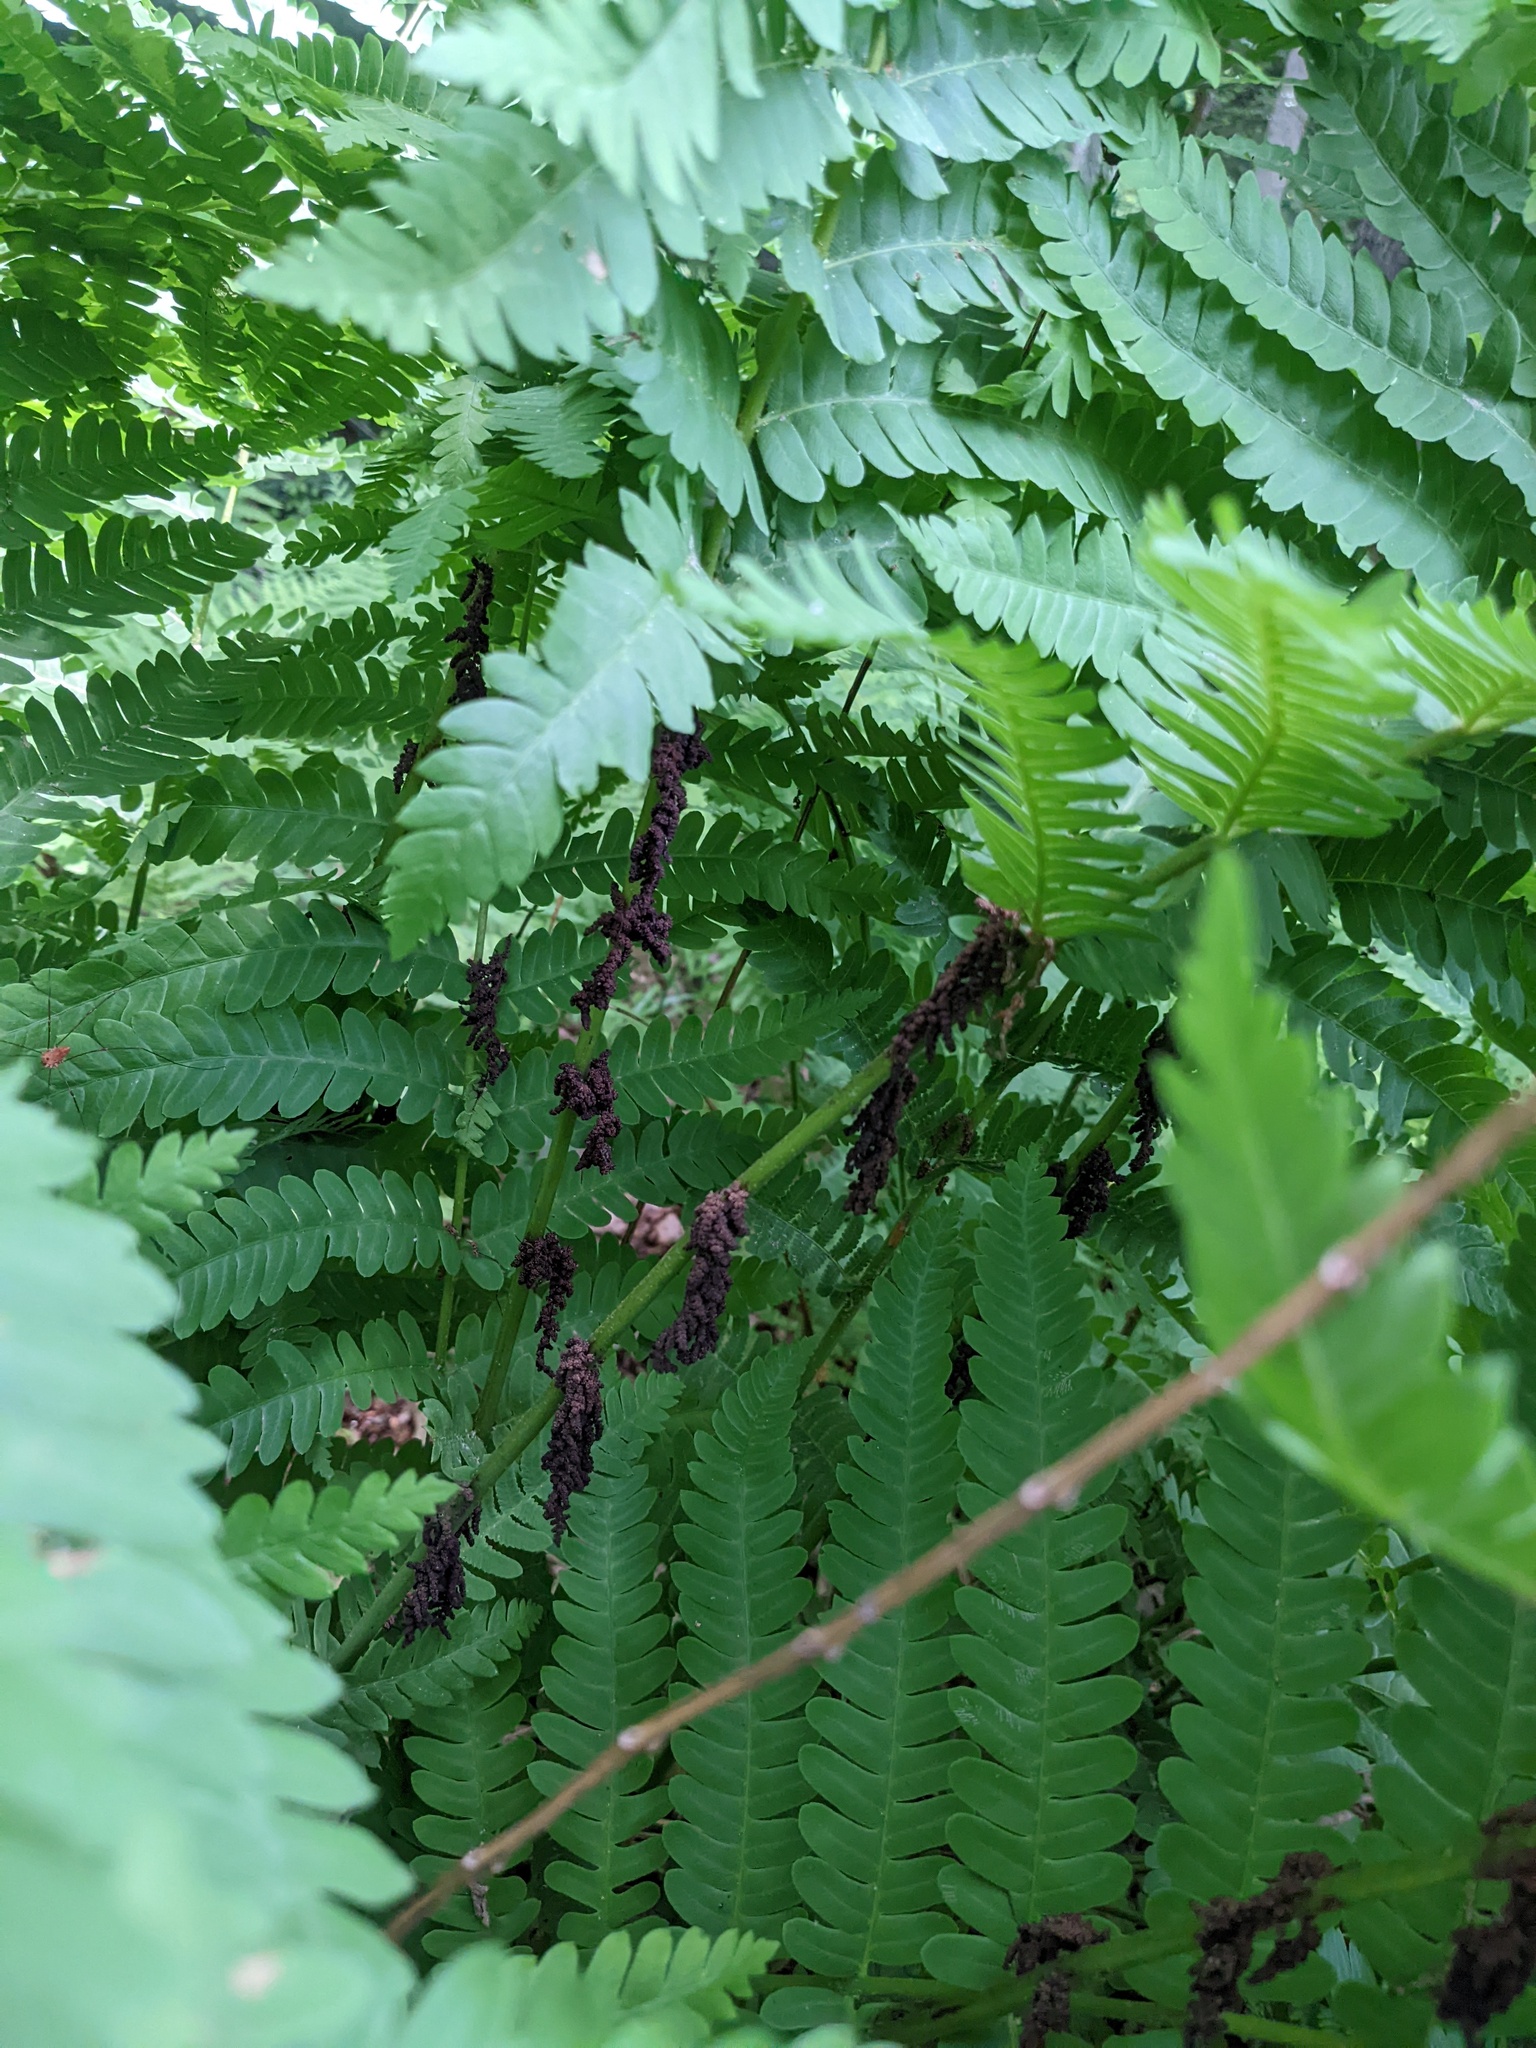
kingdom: Plantae
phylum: Tracheophyta
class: Polypodiopsida
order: Osmundales
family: Osmundaceae
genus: Claytosmunda
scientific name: Claytosmunda claytoniana
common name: Clayton's fern
